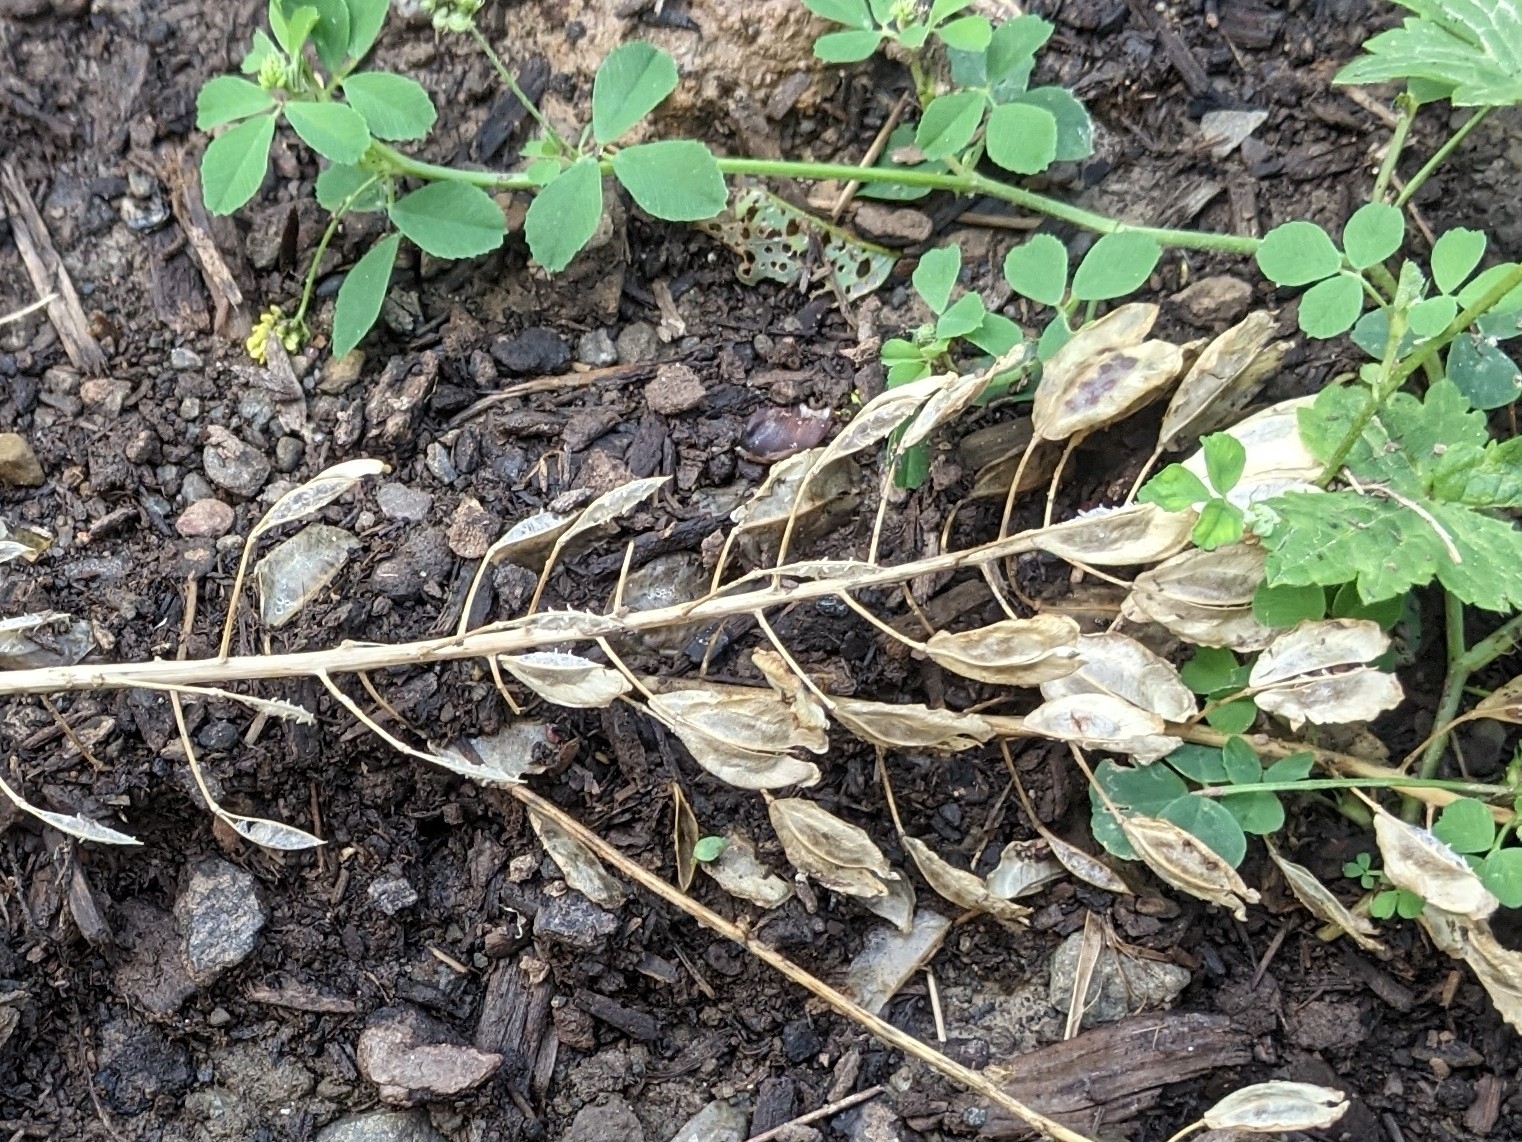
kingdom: Plantae
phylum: Tracheophyta
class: Magnoliopsida
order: Brassicales
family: Brassicaceae
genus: Thlaspi
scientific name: Thlaspi arvense
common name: Field pennycress
